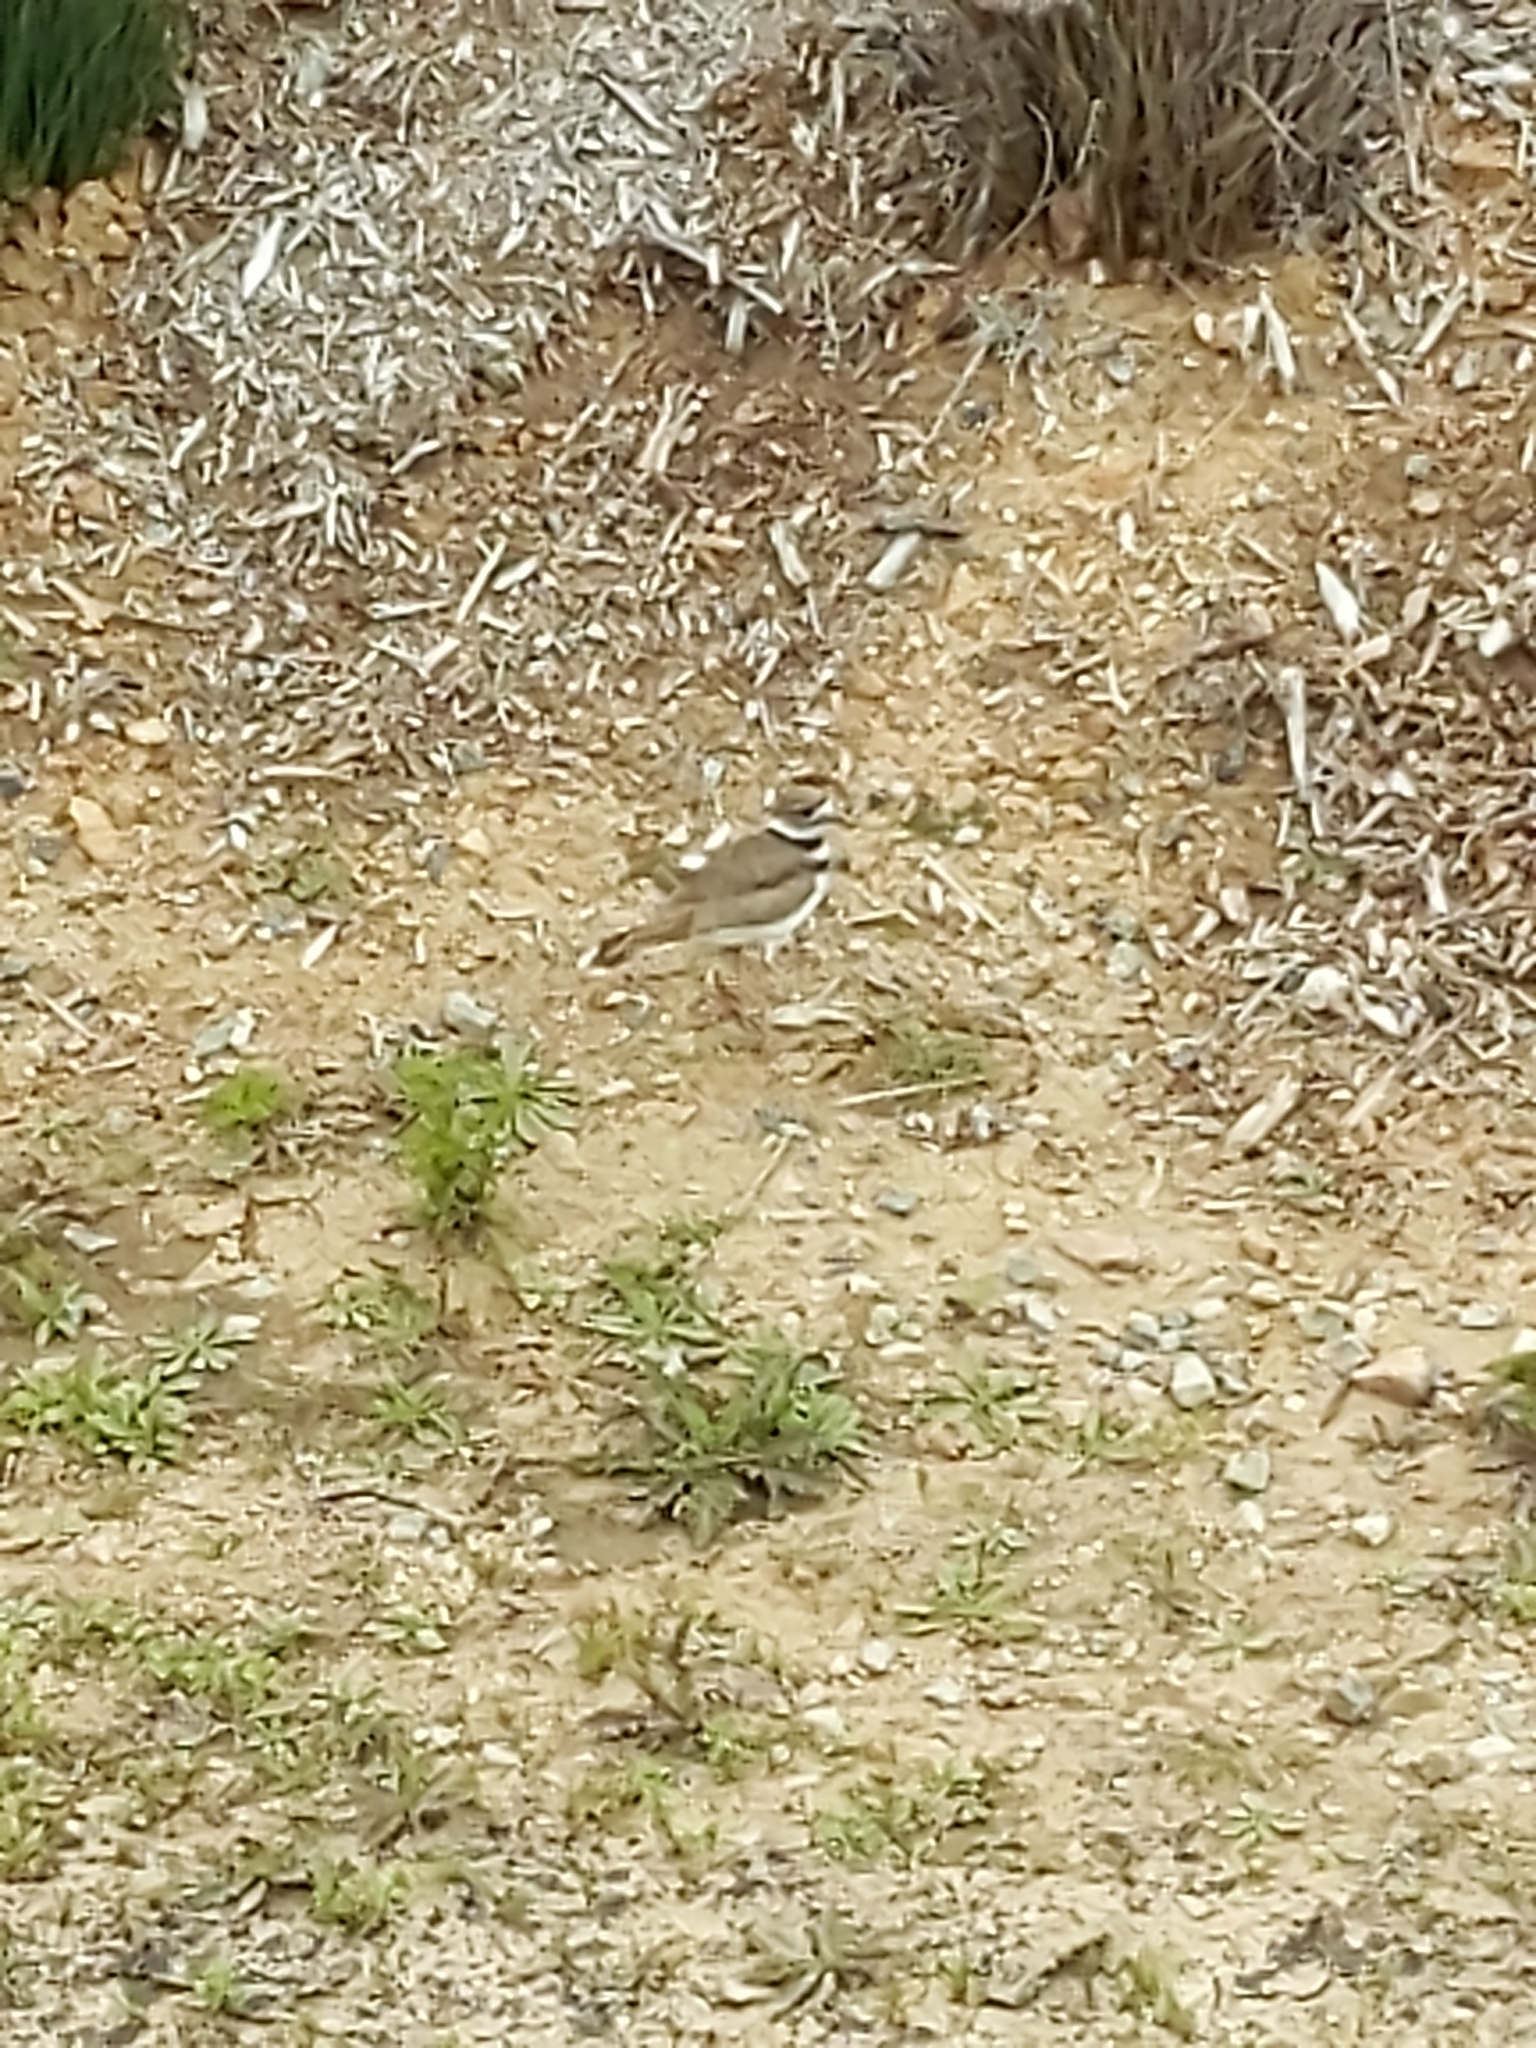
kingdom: Animalia
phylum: Chordata
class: Aves
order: Charadriiformes
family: Charadriidae
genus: Charadrius
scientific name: Charadrius vociferus
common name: Killdeer
